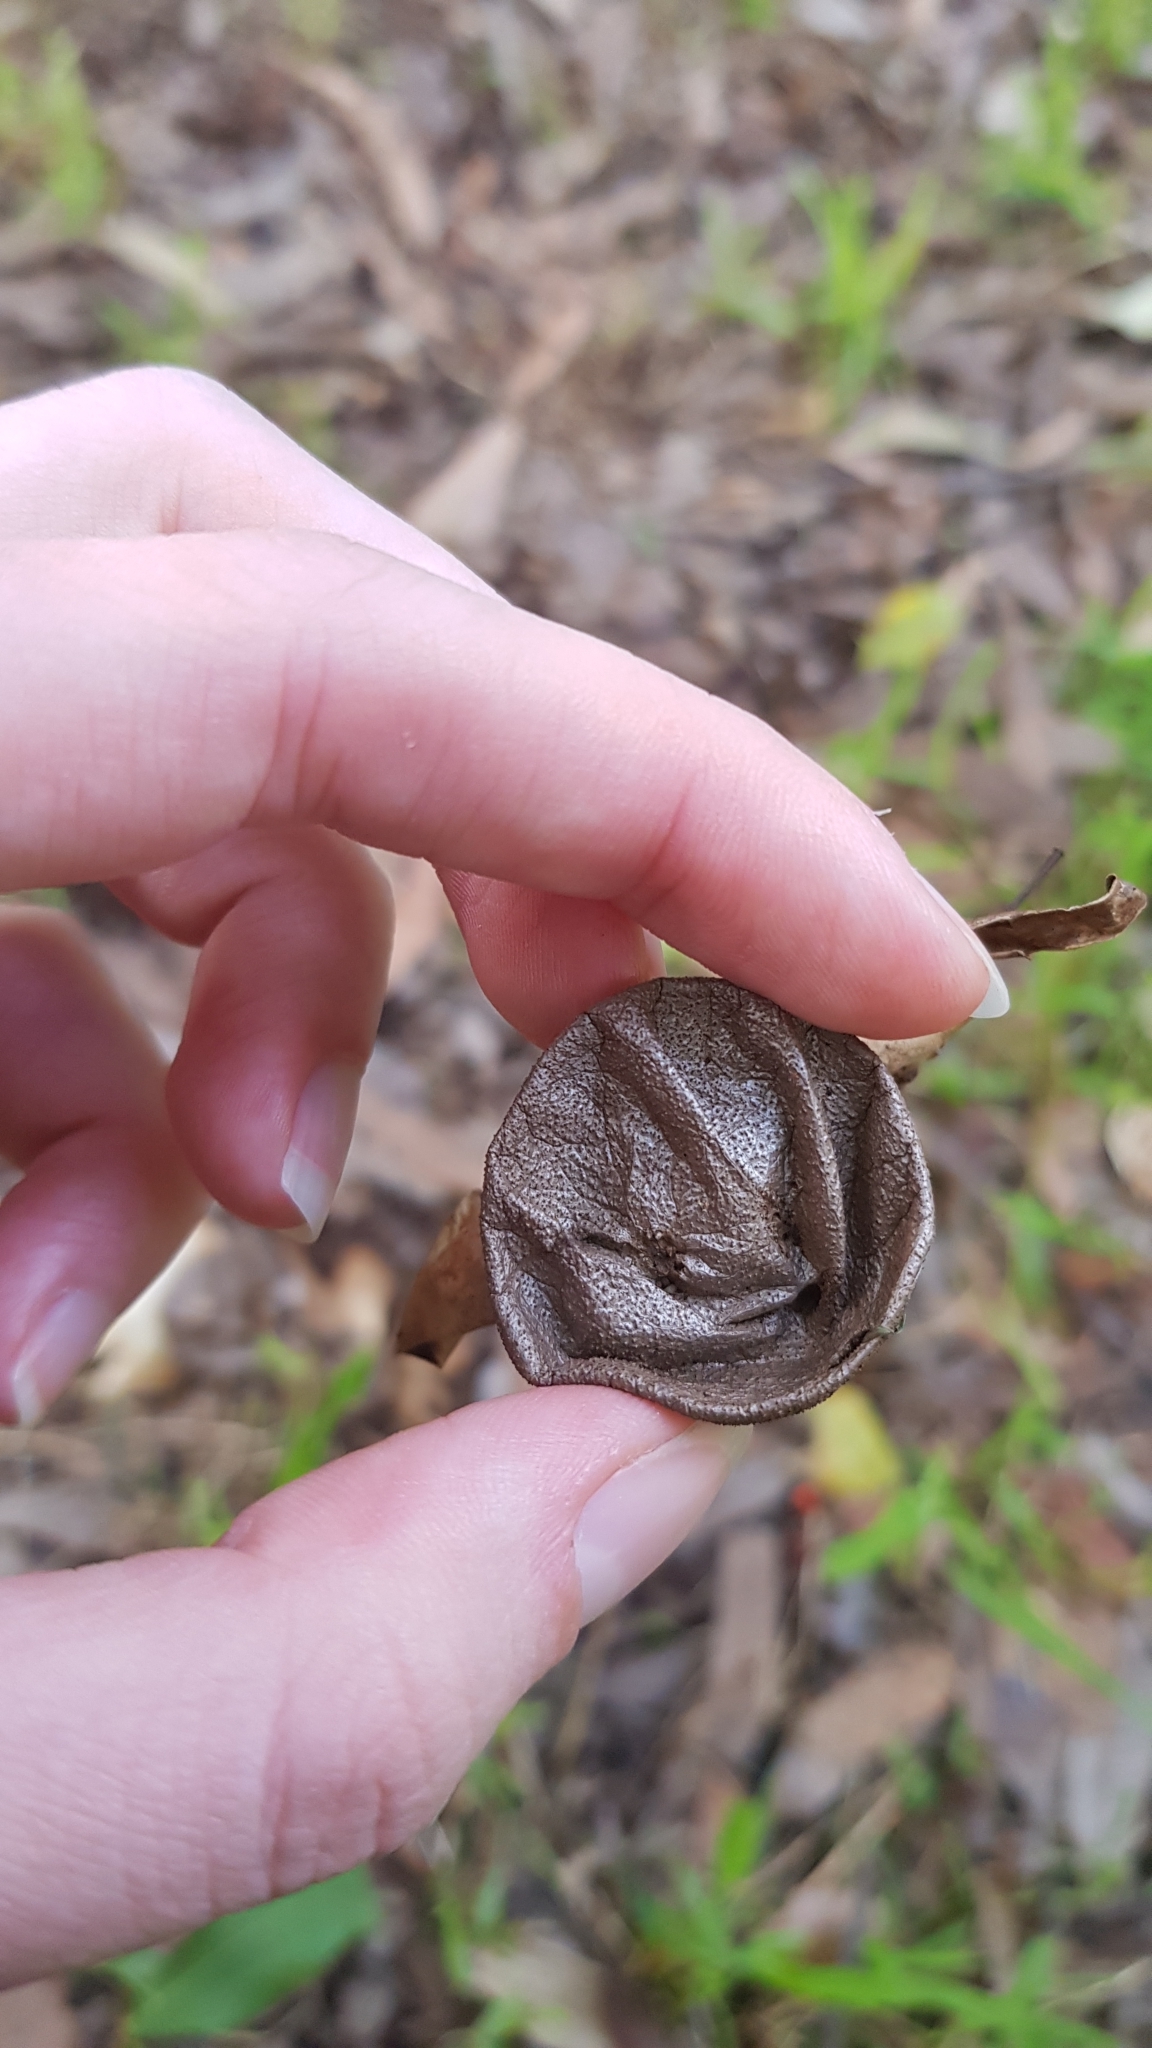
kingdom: Fungi
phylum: Basidiomycota
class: Agaricomycetes
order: Geastrales
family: Geastraceae
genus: Myriostoma
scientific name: Myriostoma australianum
